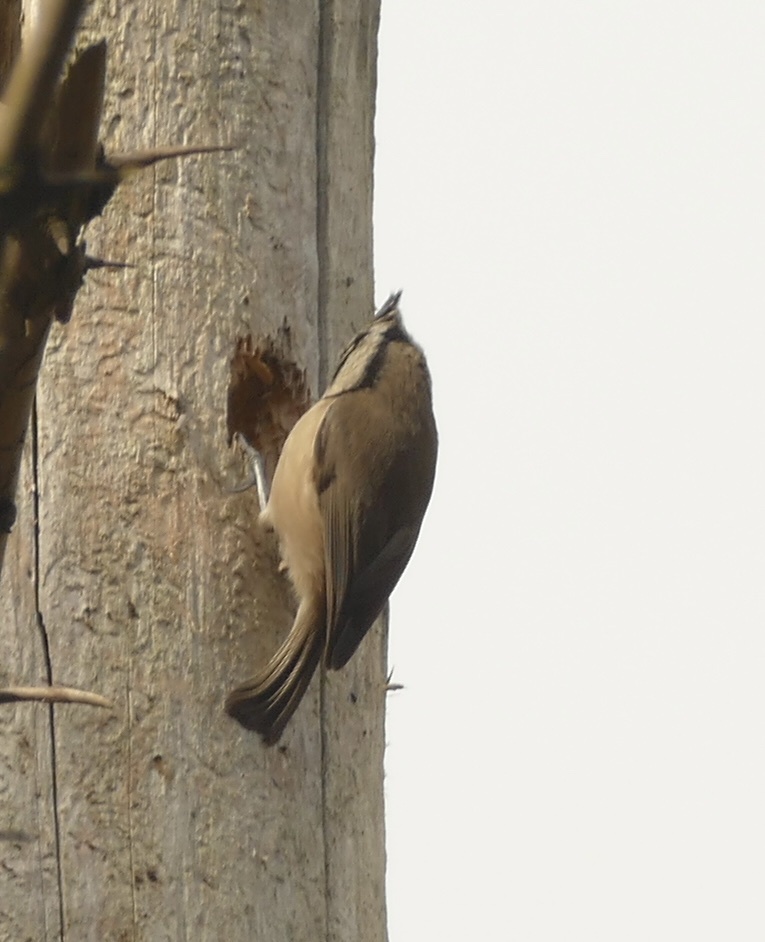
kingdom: Animalia
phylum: Chordata
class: Aves
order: Passeriformes
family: Paridae
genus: Lophophanes
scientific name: Lophophanes cristatus
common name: European crested tit
